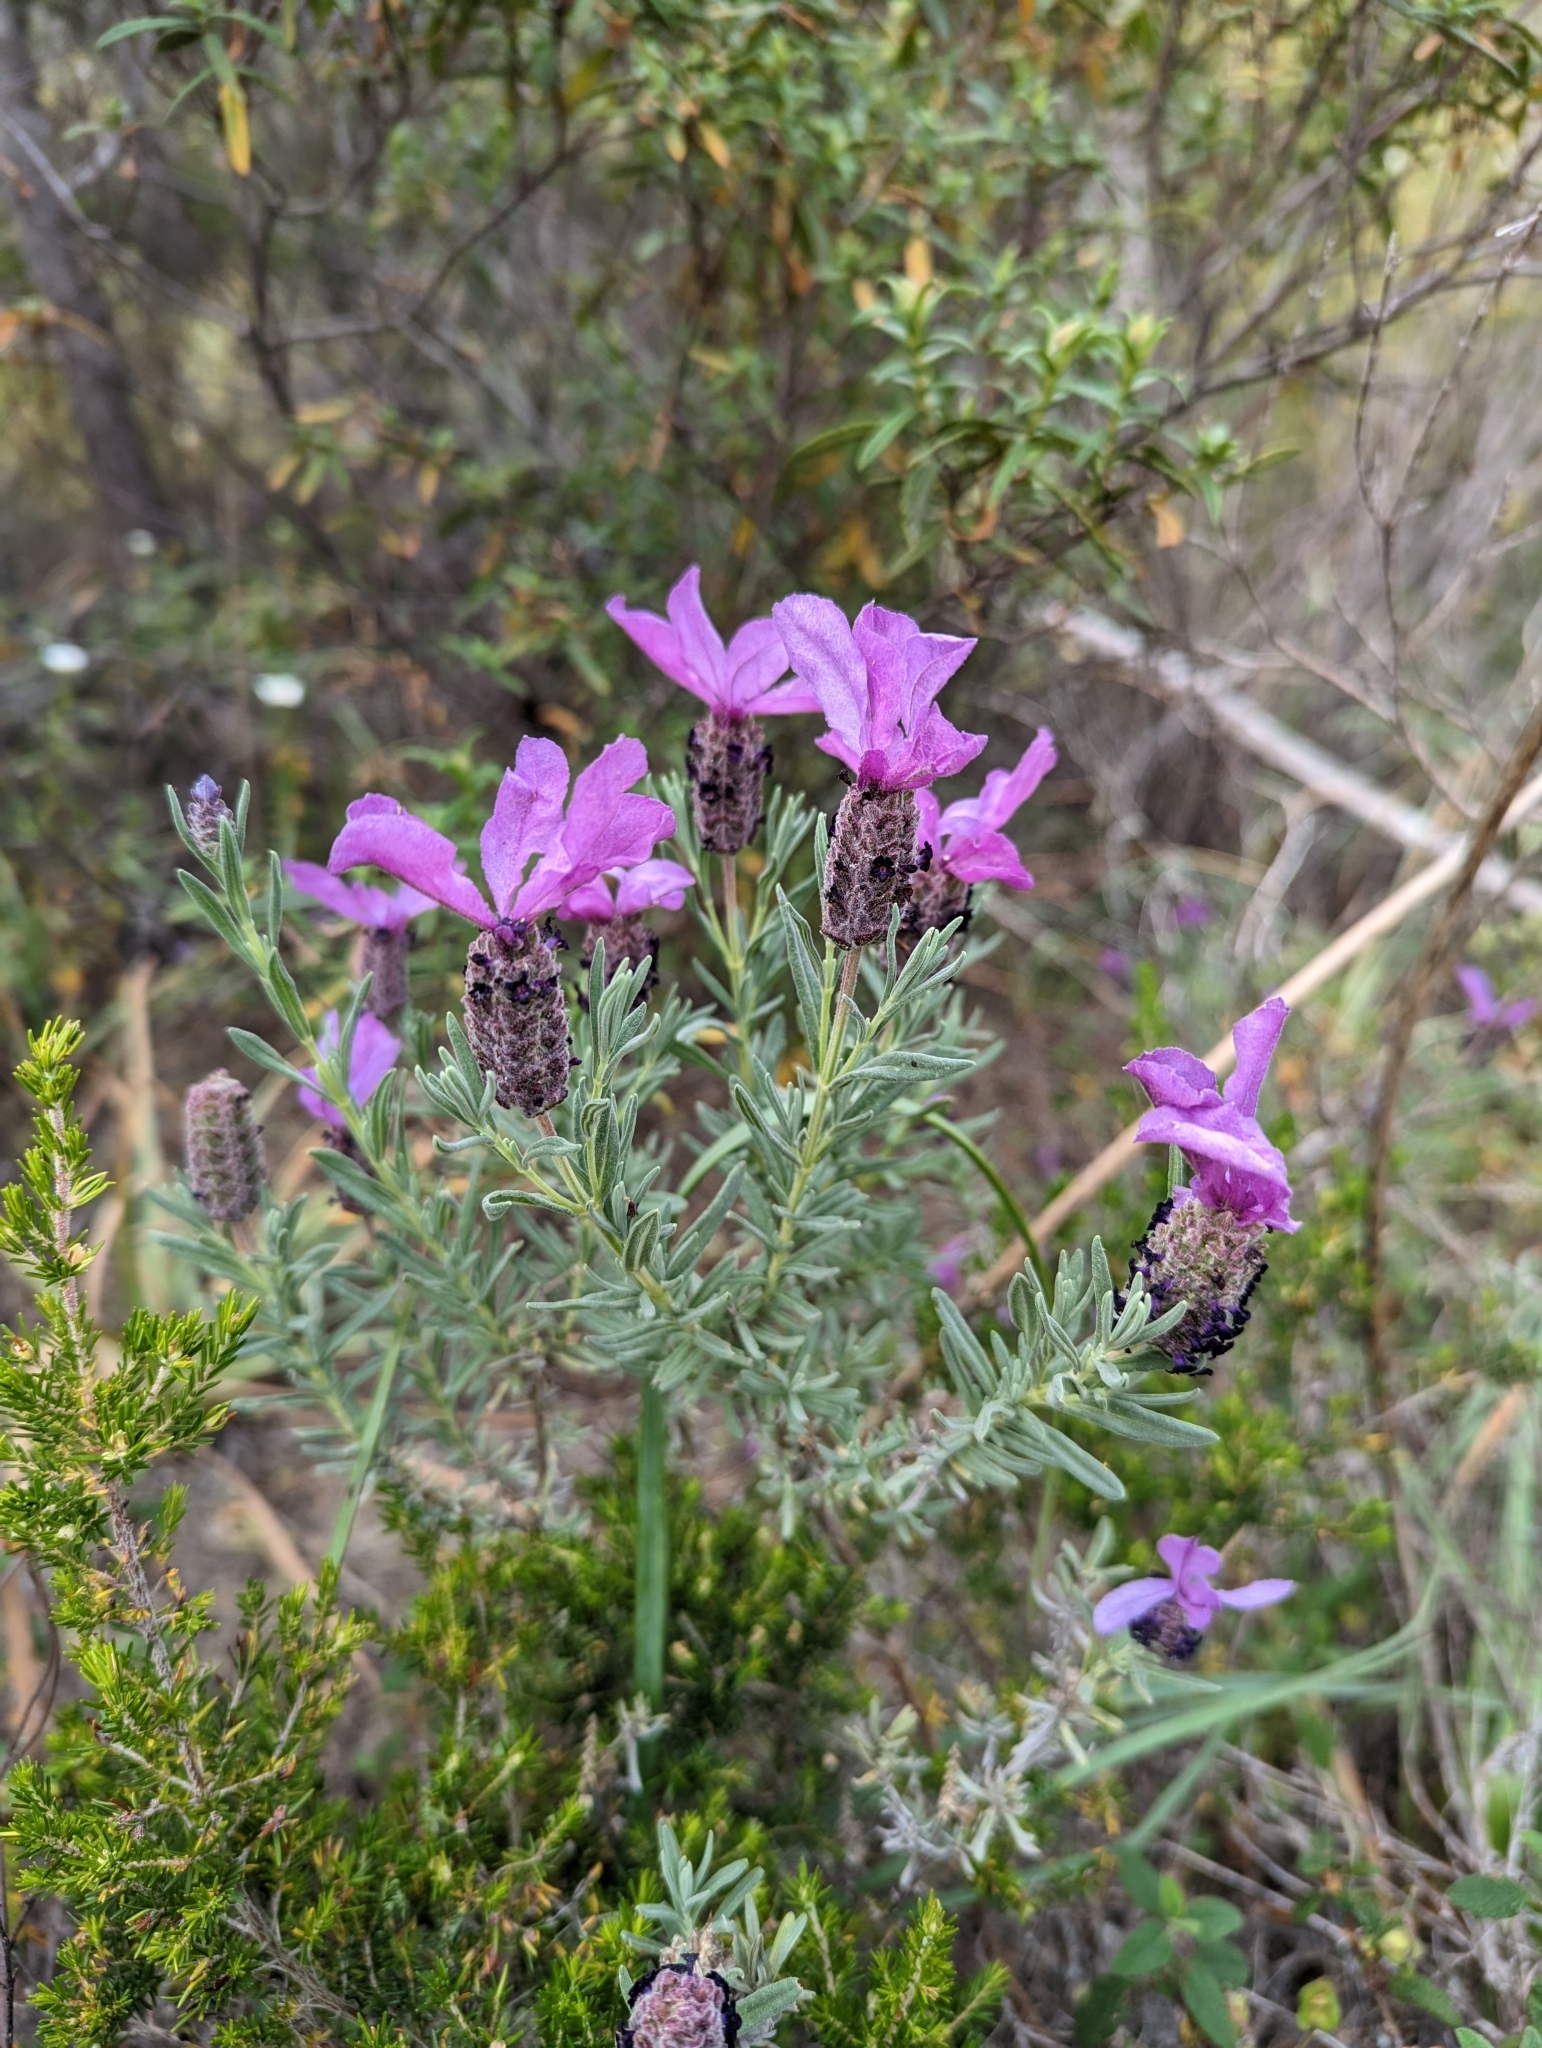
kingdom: Plantae
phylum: Tracheophyta
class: Magnoliopsida
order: Lamiales
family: Lamiaceae
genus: Lavandula
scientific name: Lavandula stoechas
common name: French lavender
